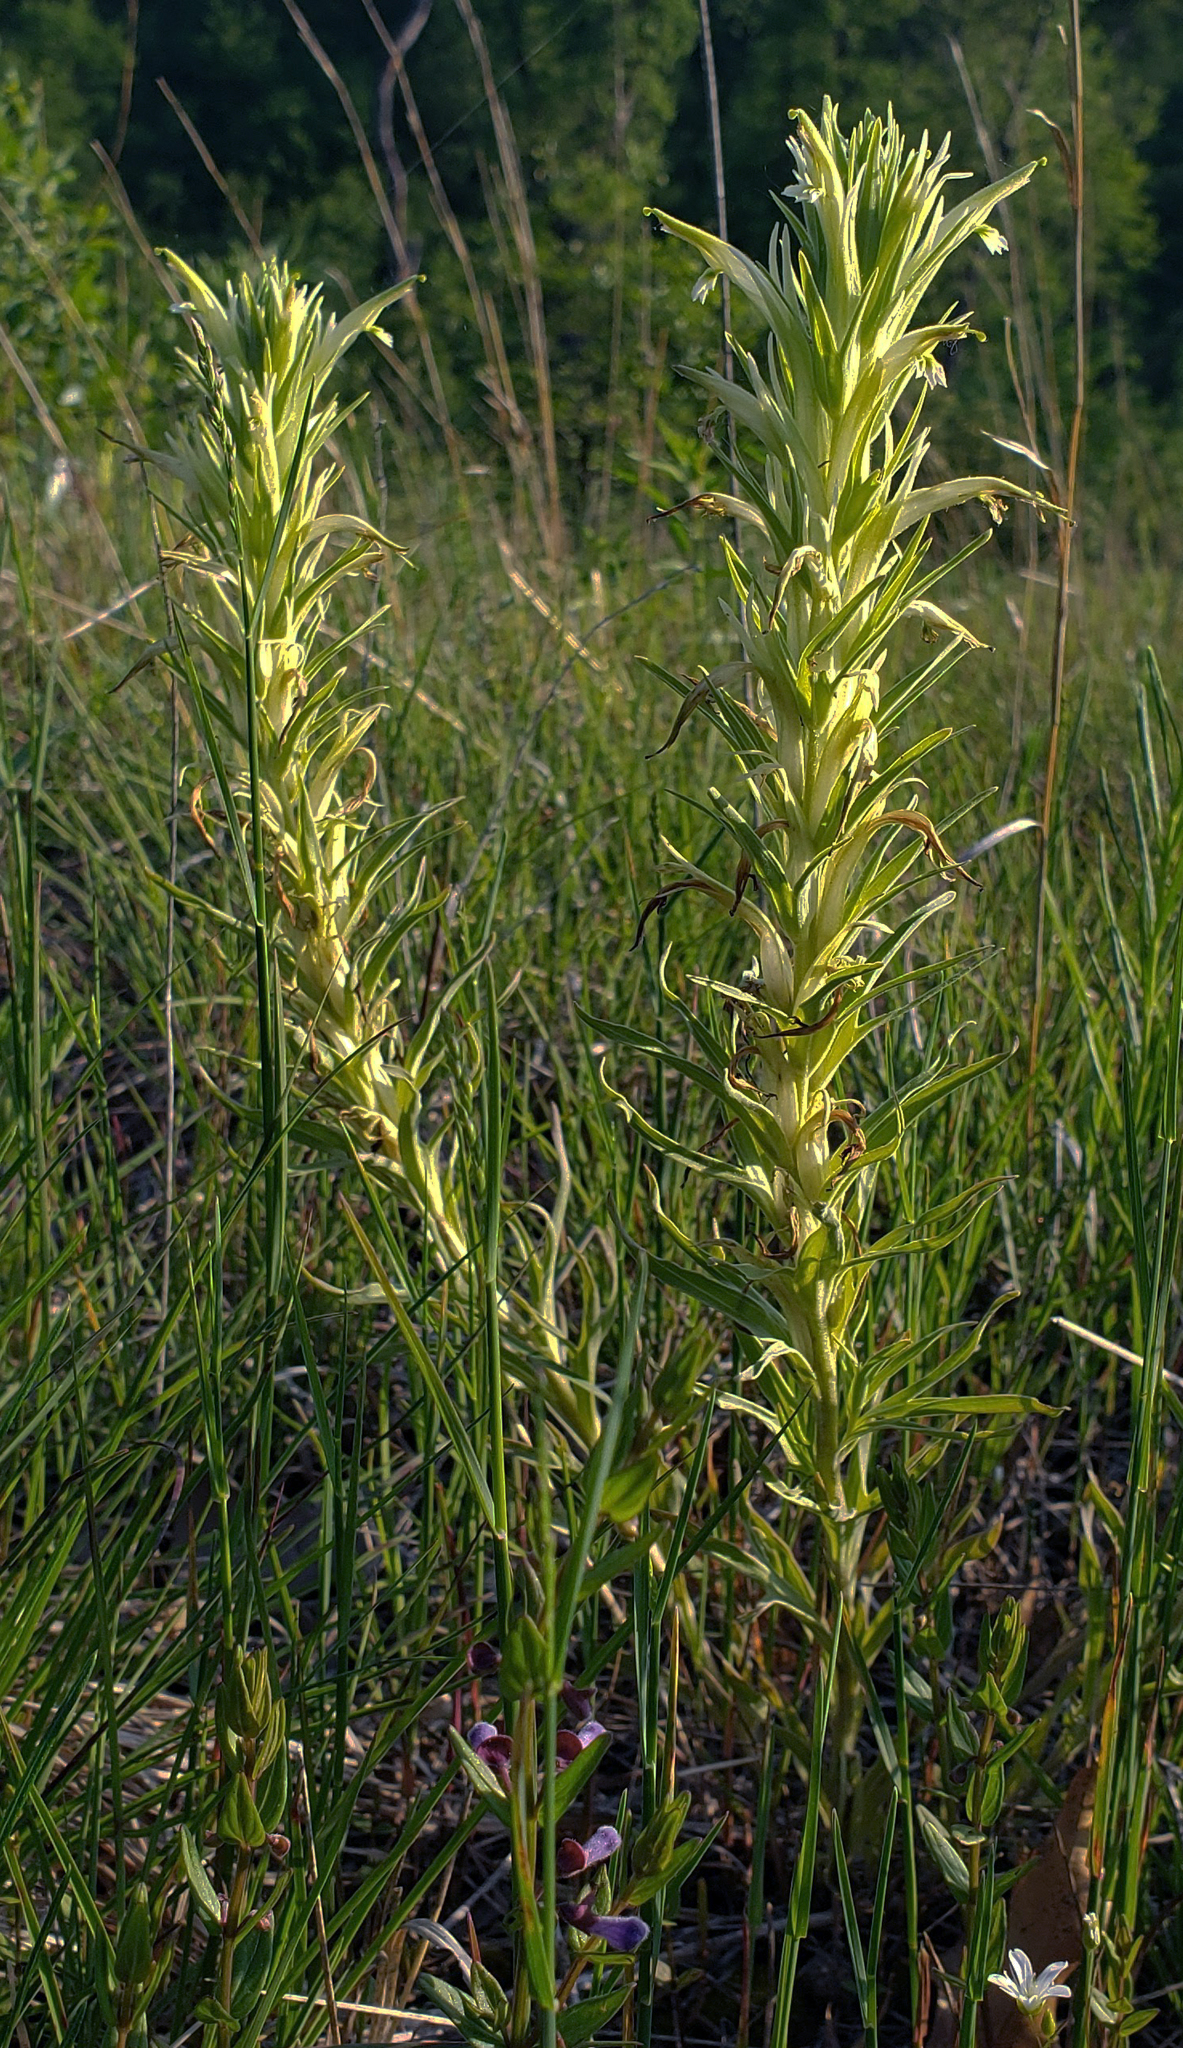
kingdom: Plantae
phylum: Tracheophyta
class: Magnoliopsida
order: Lamiales
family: Orobanchaceae
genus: Castilleja
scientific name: Castilleja sessiliflora
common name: Downy paintbrush
